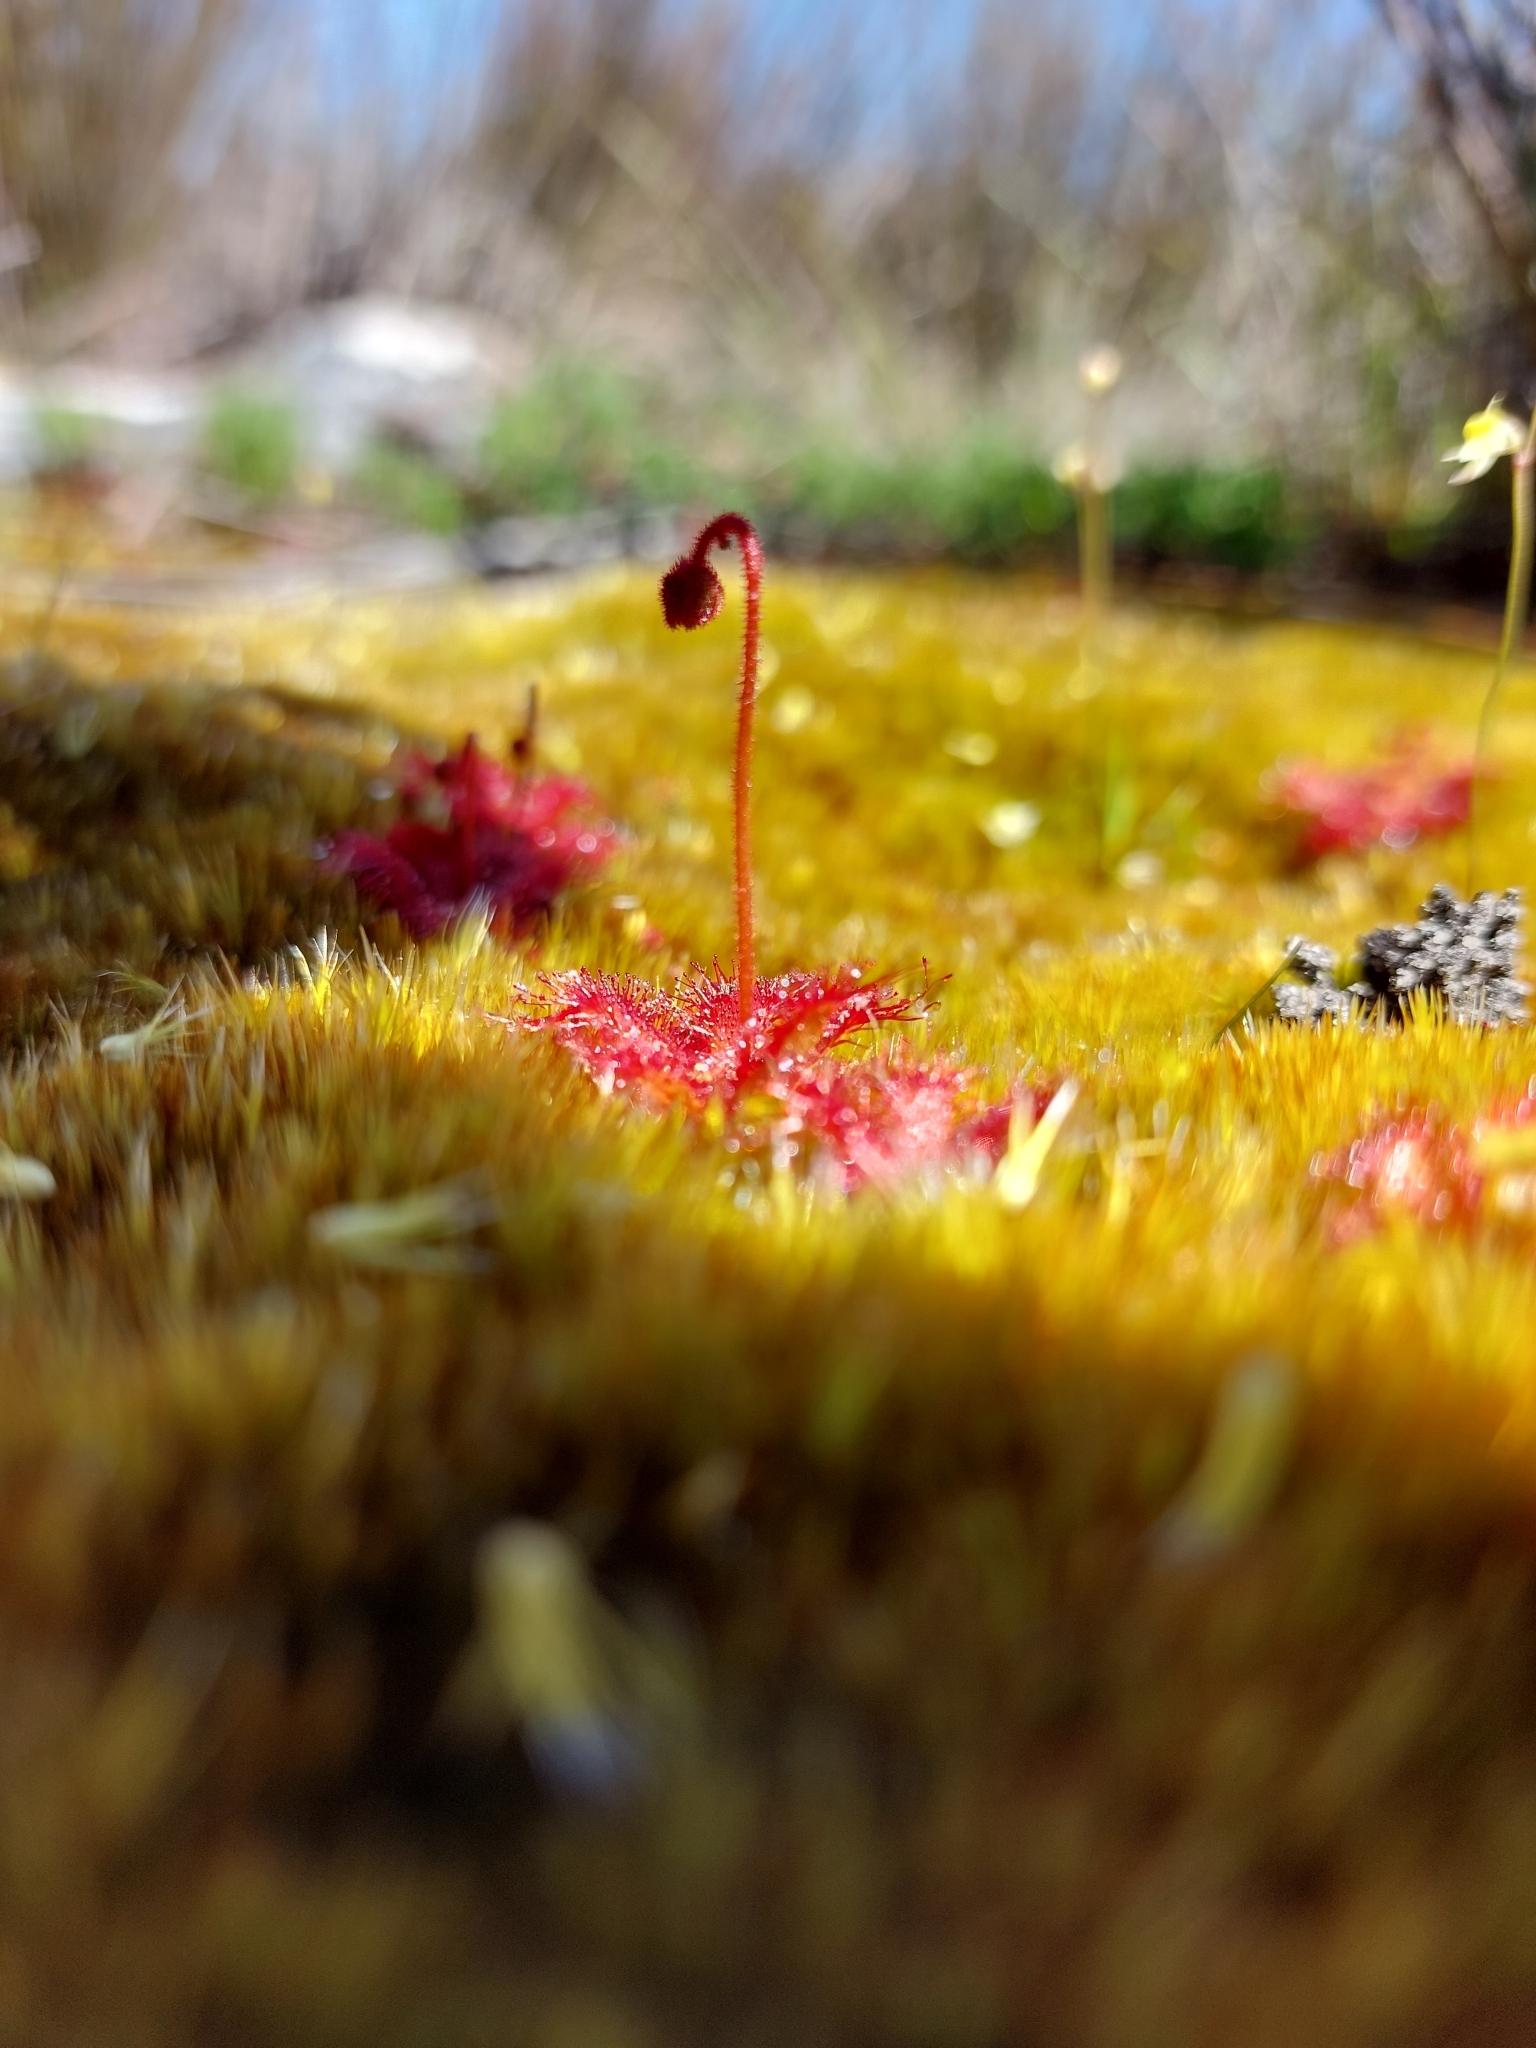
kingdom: Plantae
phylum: Tracheophyta
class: Magnoliopsida
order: Caryophyllales
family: Droseraceae
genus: Drosera
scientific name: Drosera trinervia
